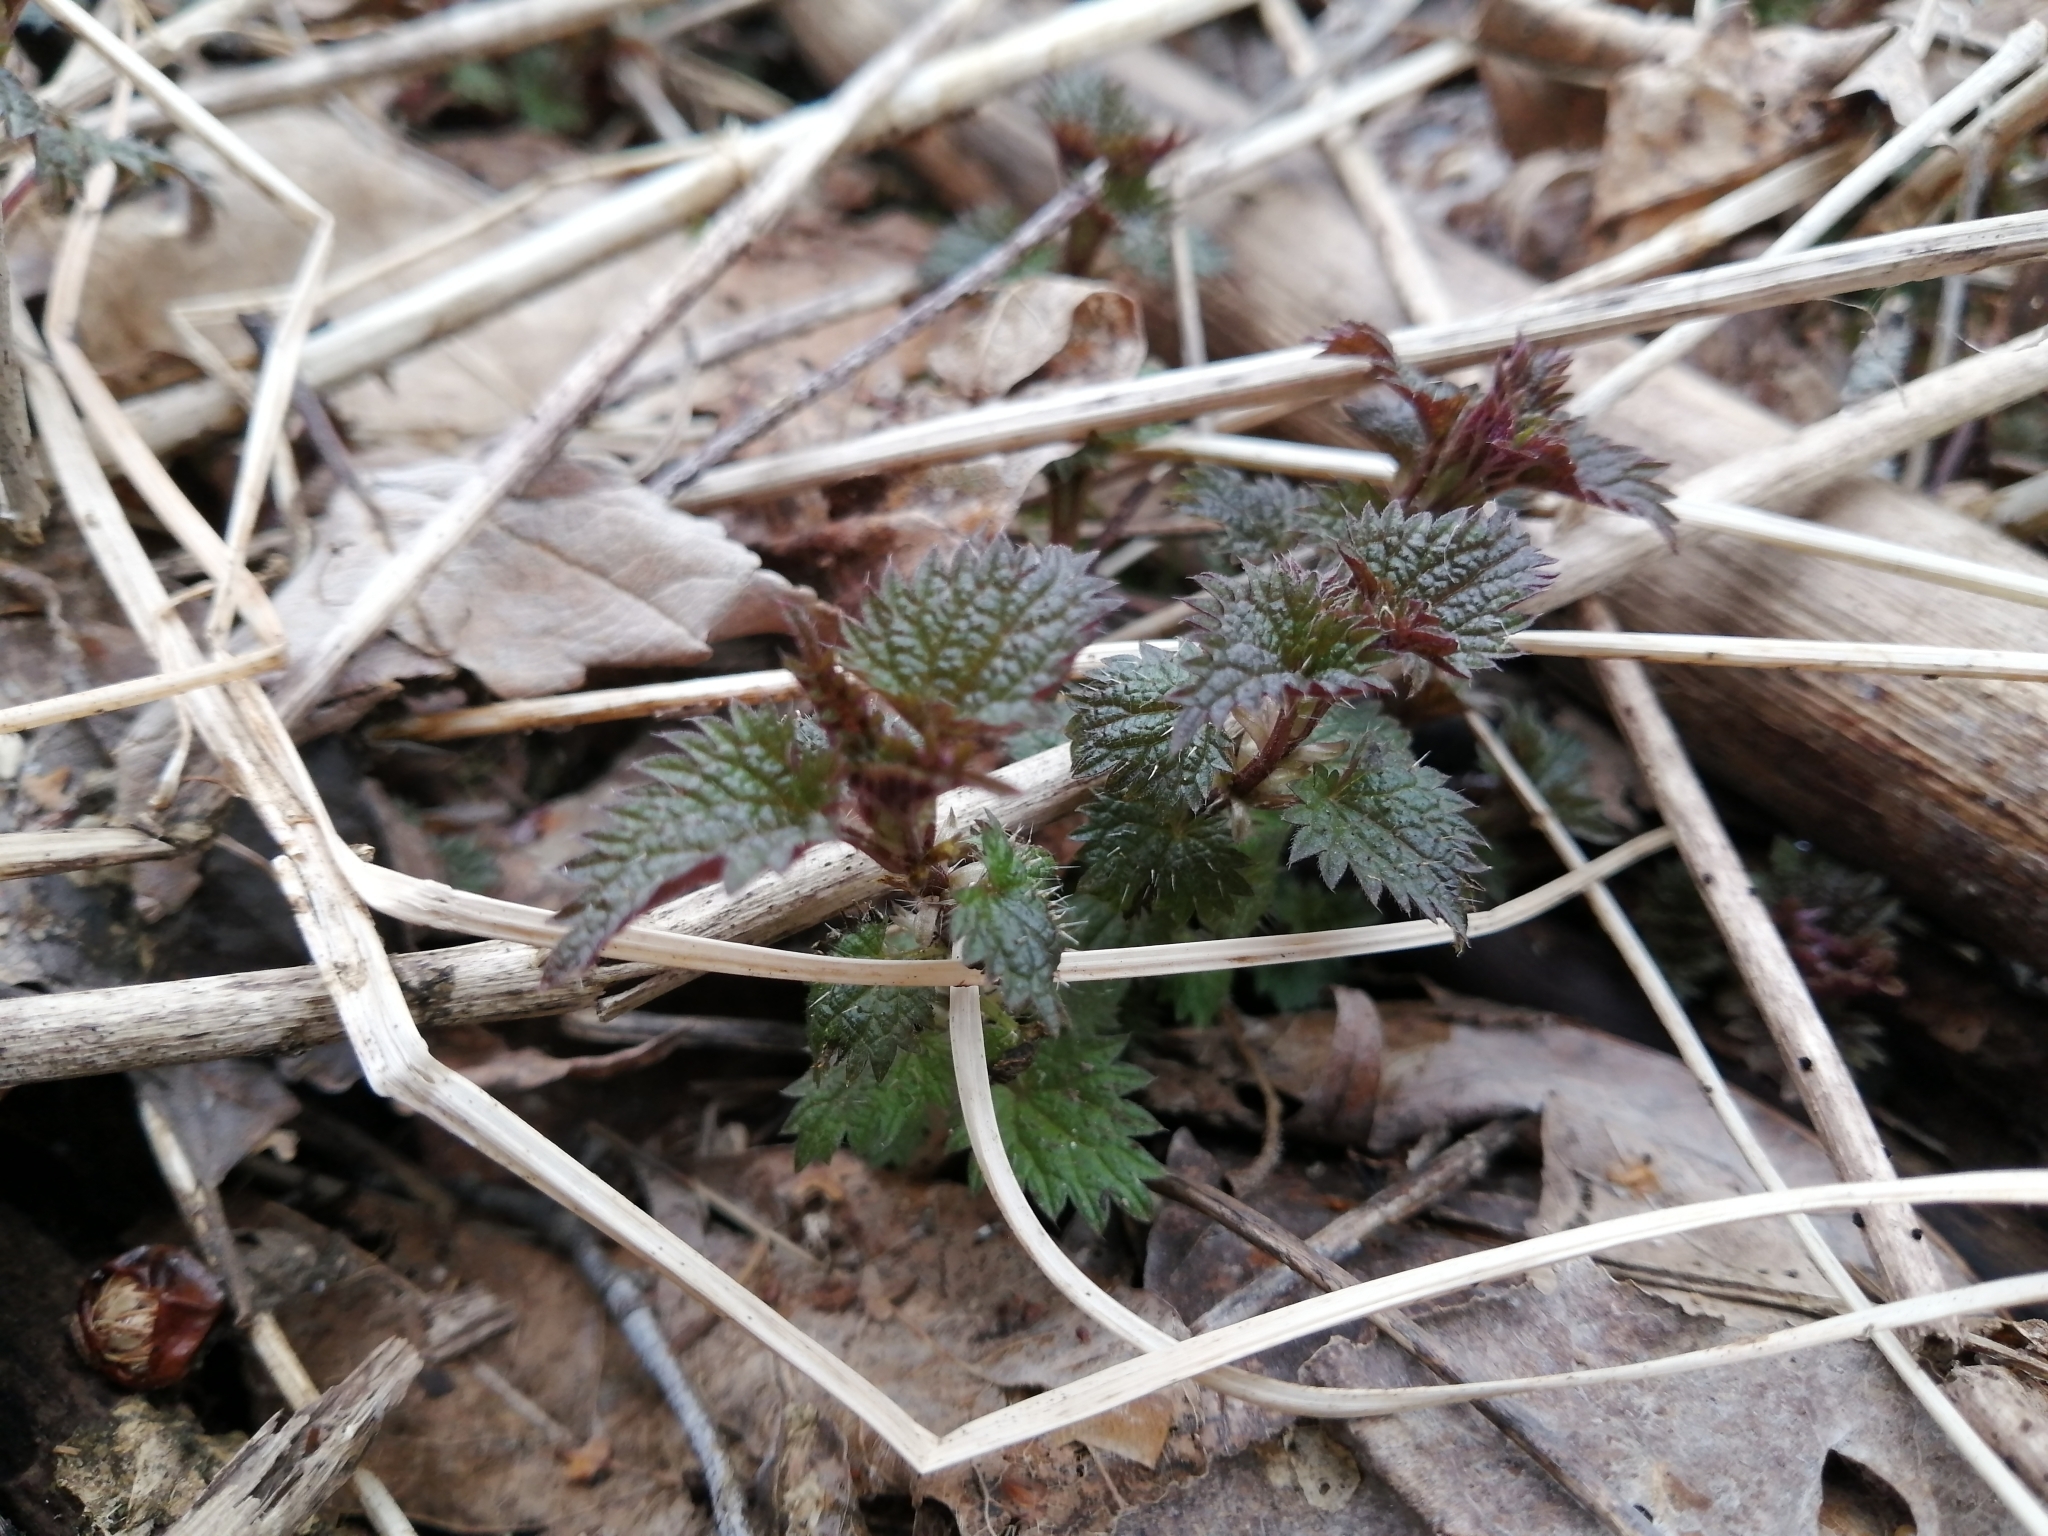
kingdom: Plantae
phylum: Tracheophyta
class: Magnoliopsida
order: Rosales
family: Urticaceae
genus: Urtica
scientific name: Urtica dioica
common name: Common nettle
